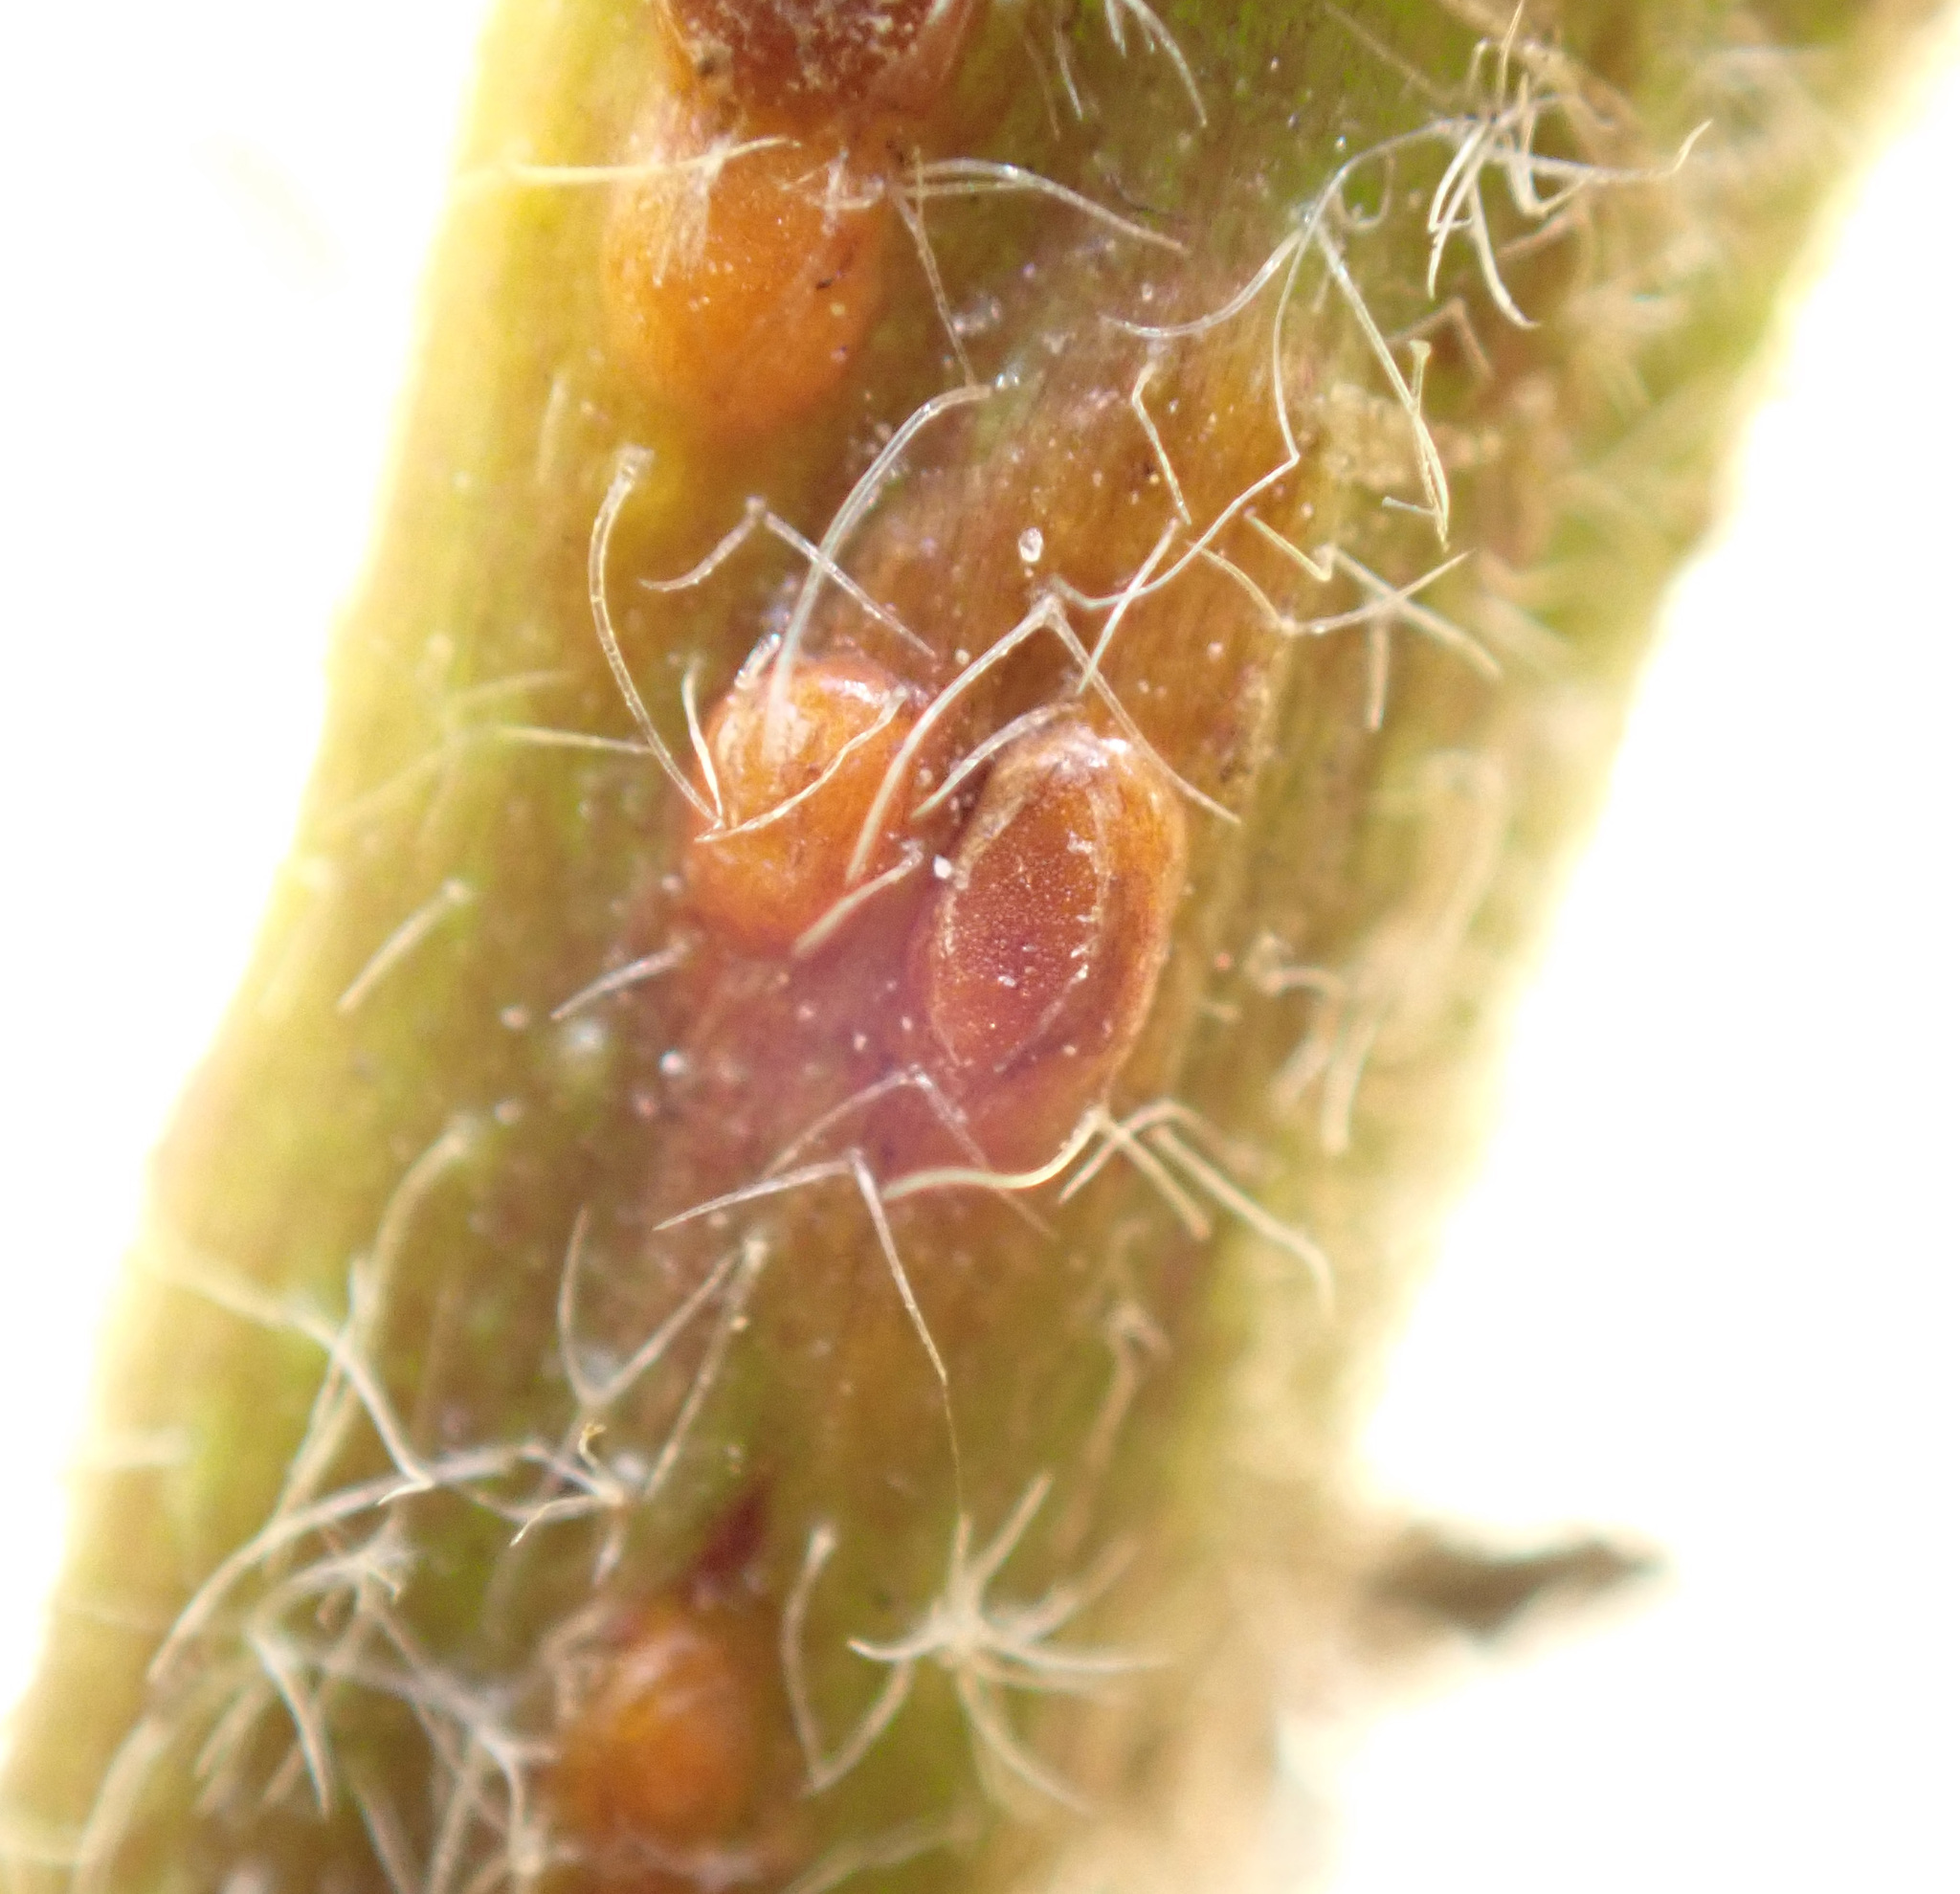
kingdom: Fungi
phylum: Basidiomycota
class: Pucciniomycetes
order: Pucciniales
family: Pucciniaceae
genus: Puccinia
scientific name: Puccinia malvacearum
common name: Hollyhock rust
